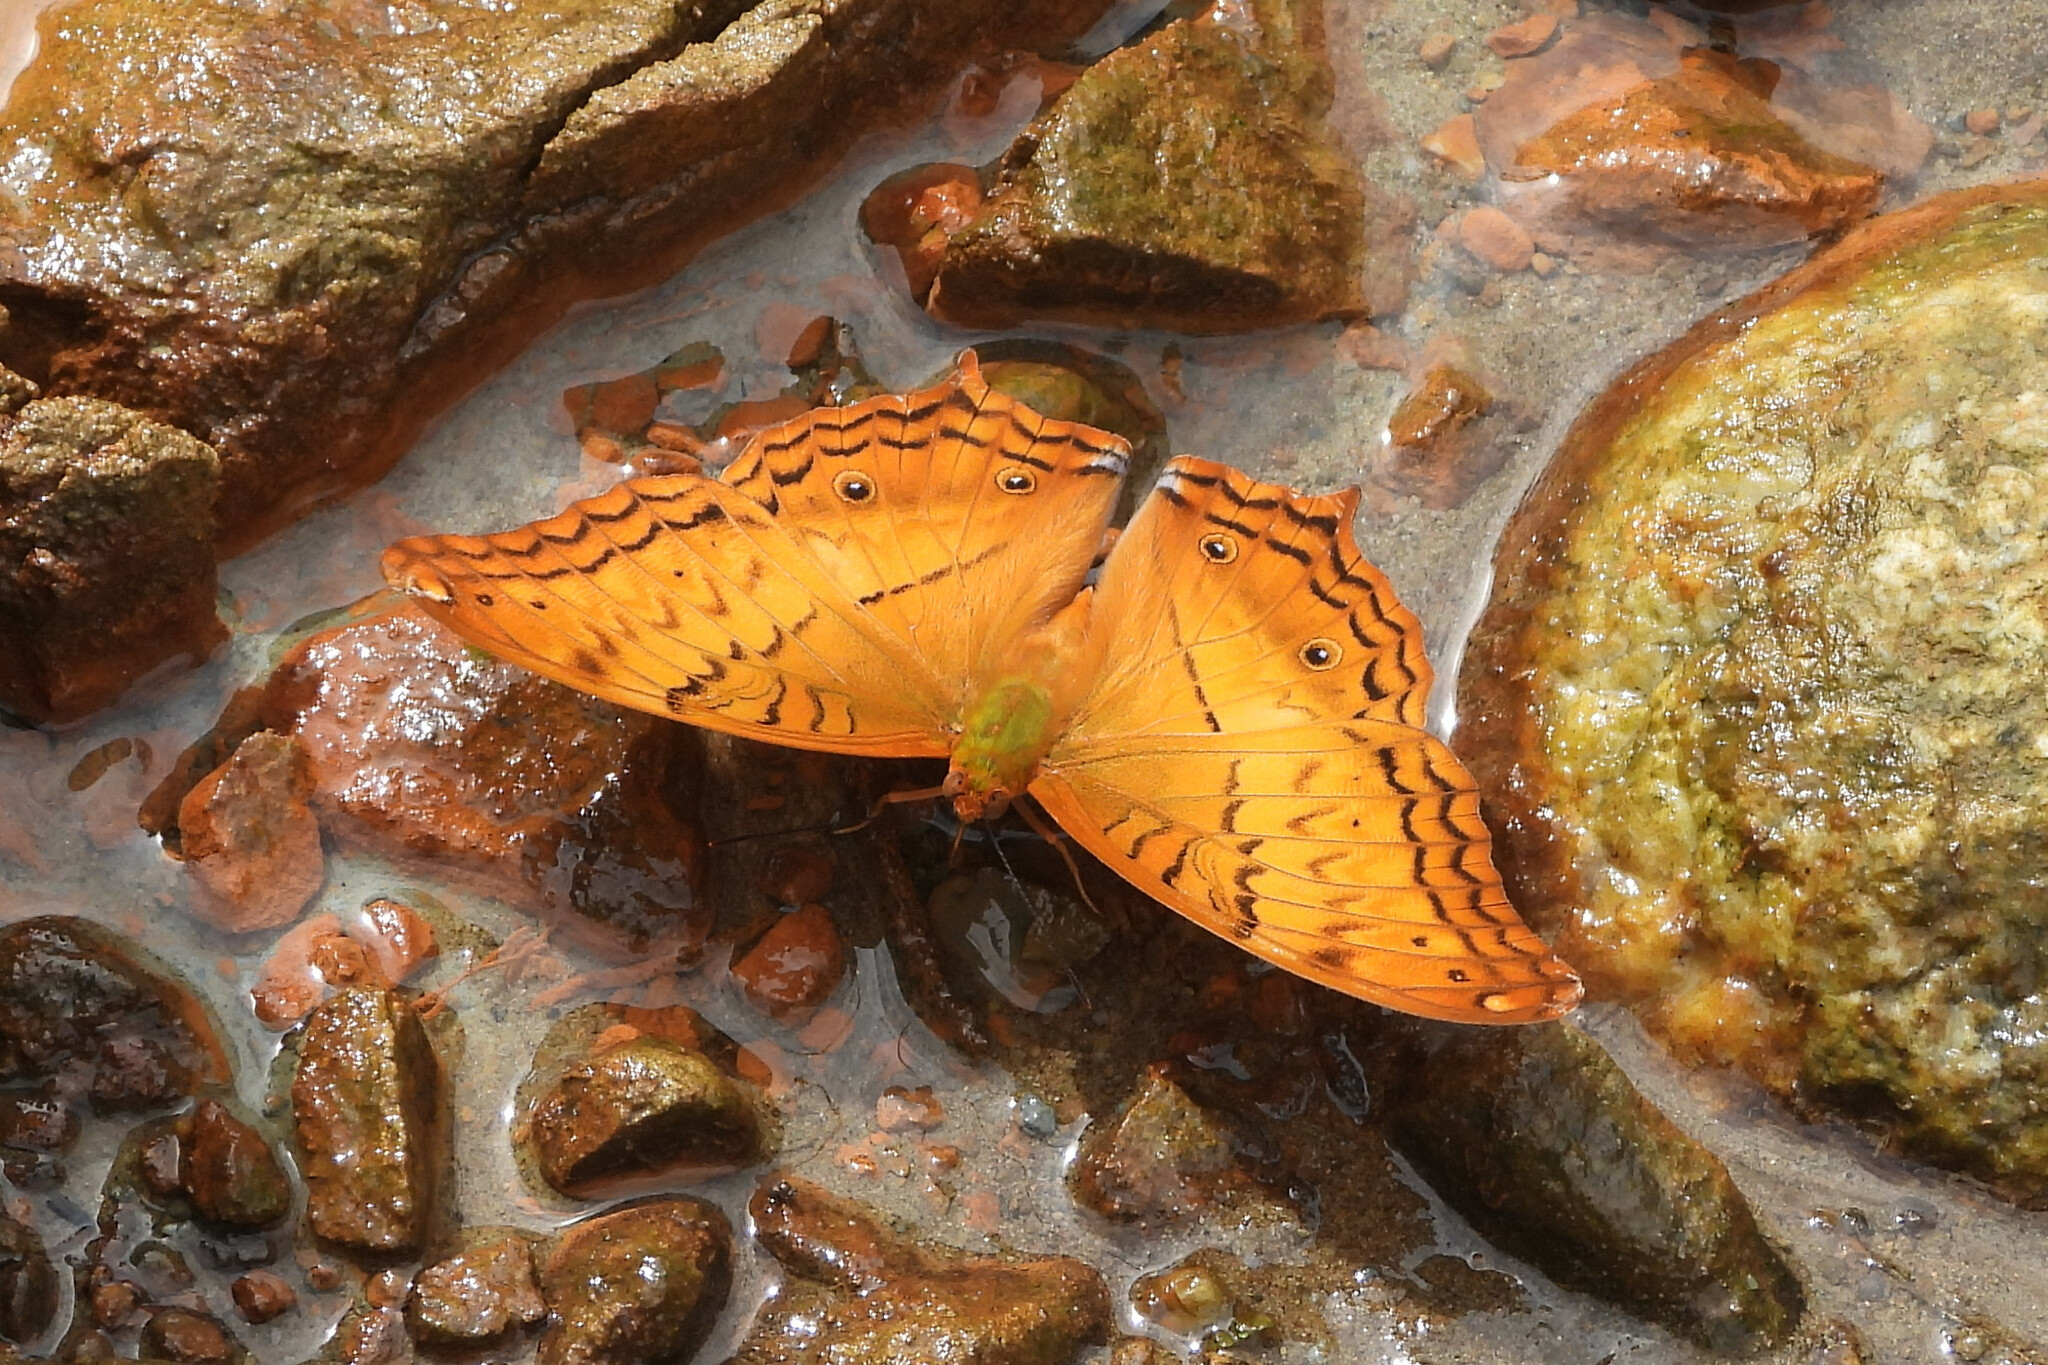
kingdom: Animalia
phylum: Arthropoda
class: Insecta
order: Lepidoptera
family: Nymphalidae
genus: Vindula
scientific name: Vindula erota
